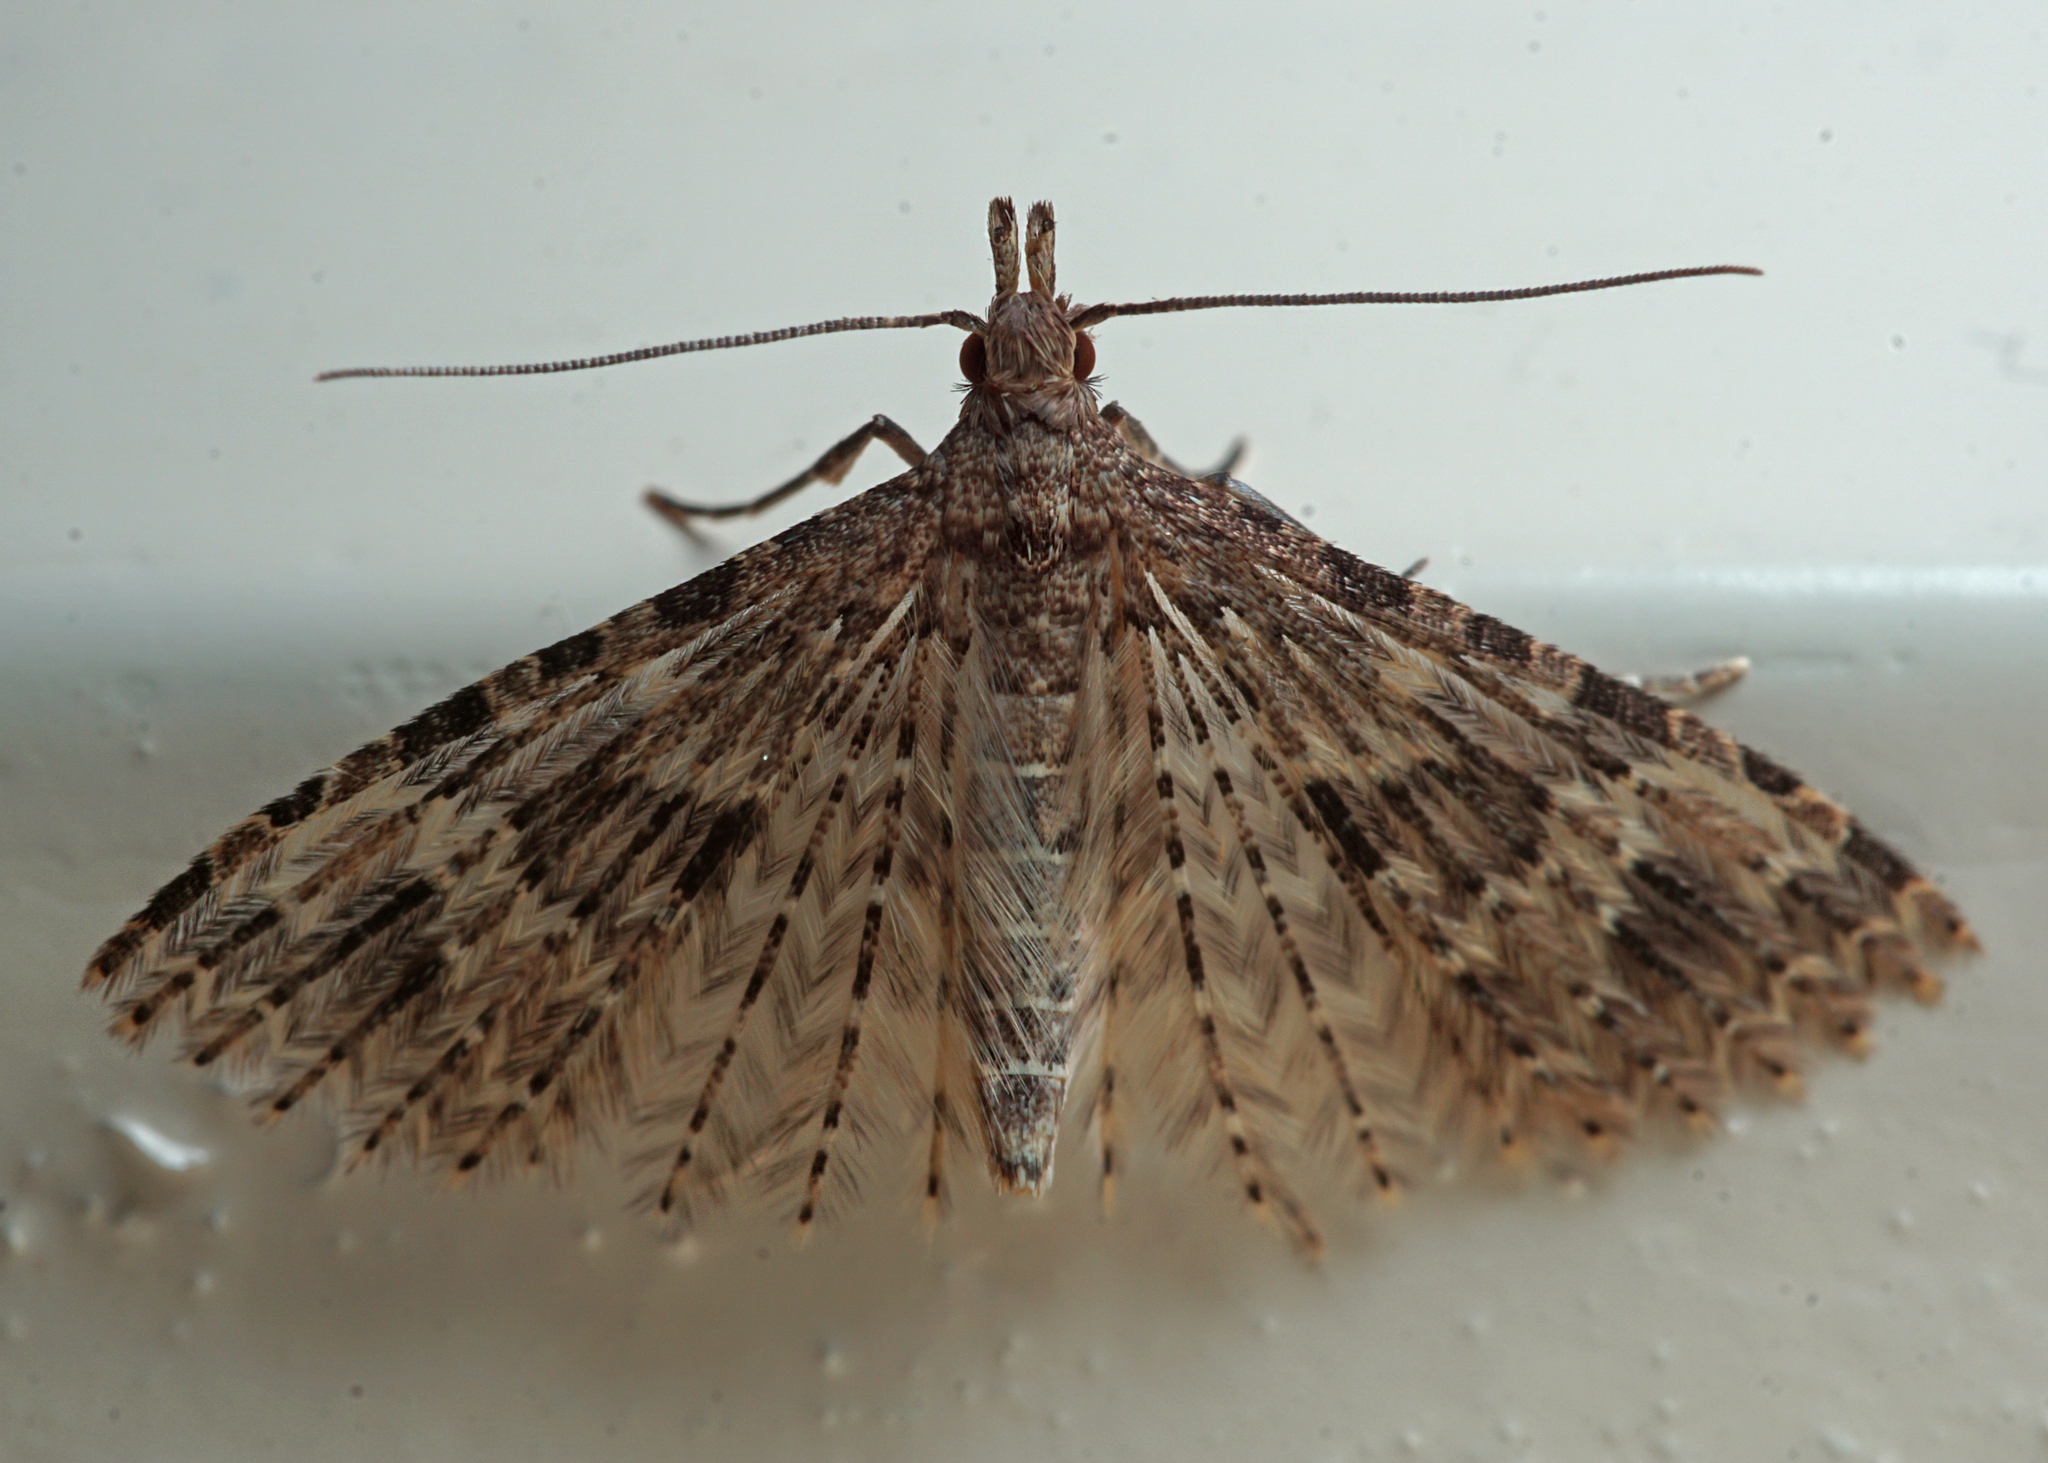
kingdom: Animalia
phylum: Arthropoda
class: Insecta
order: Lepidoptera
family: Alucitidae
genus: Alucita
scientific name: Alucita hexadactyla
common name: Twenty-plume moth
